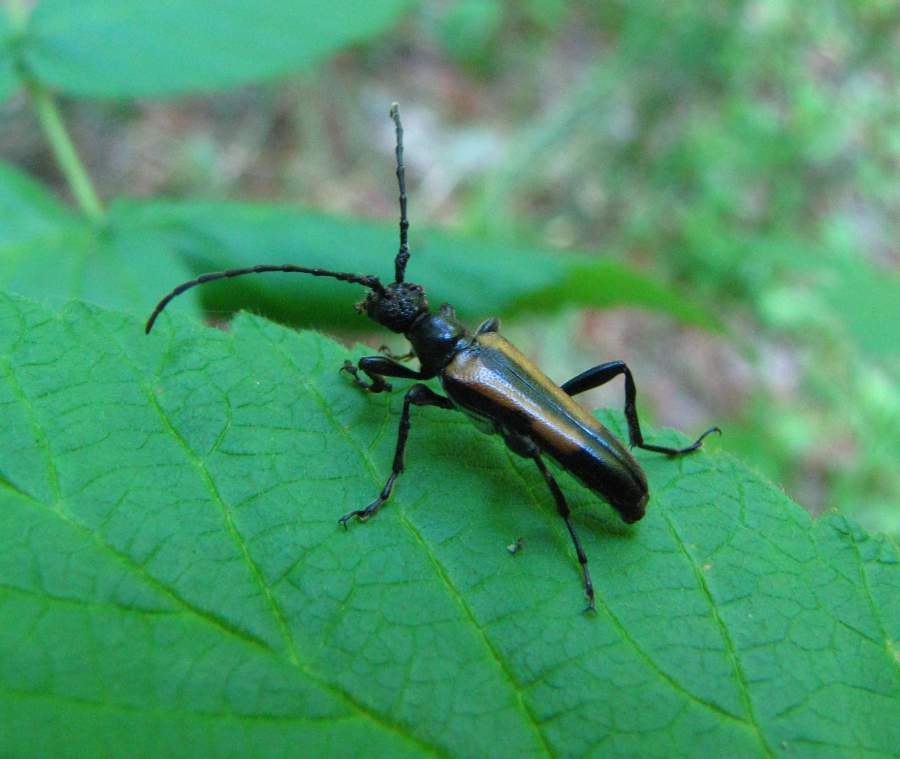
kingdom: Animalia
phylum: Arthropoda
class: Insecta
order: Coleoptera
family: Cerambycidae
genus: Strangalepta
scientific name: Strangalepta abbreviata
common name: Strangalepta flower longhorn beetle
